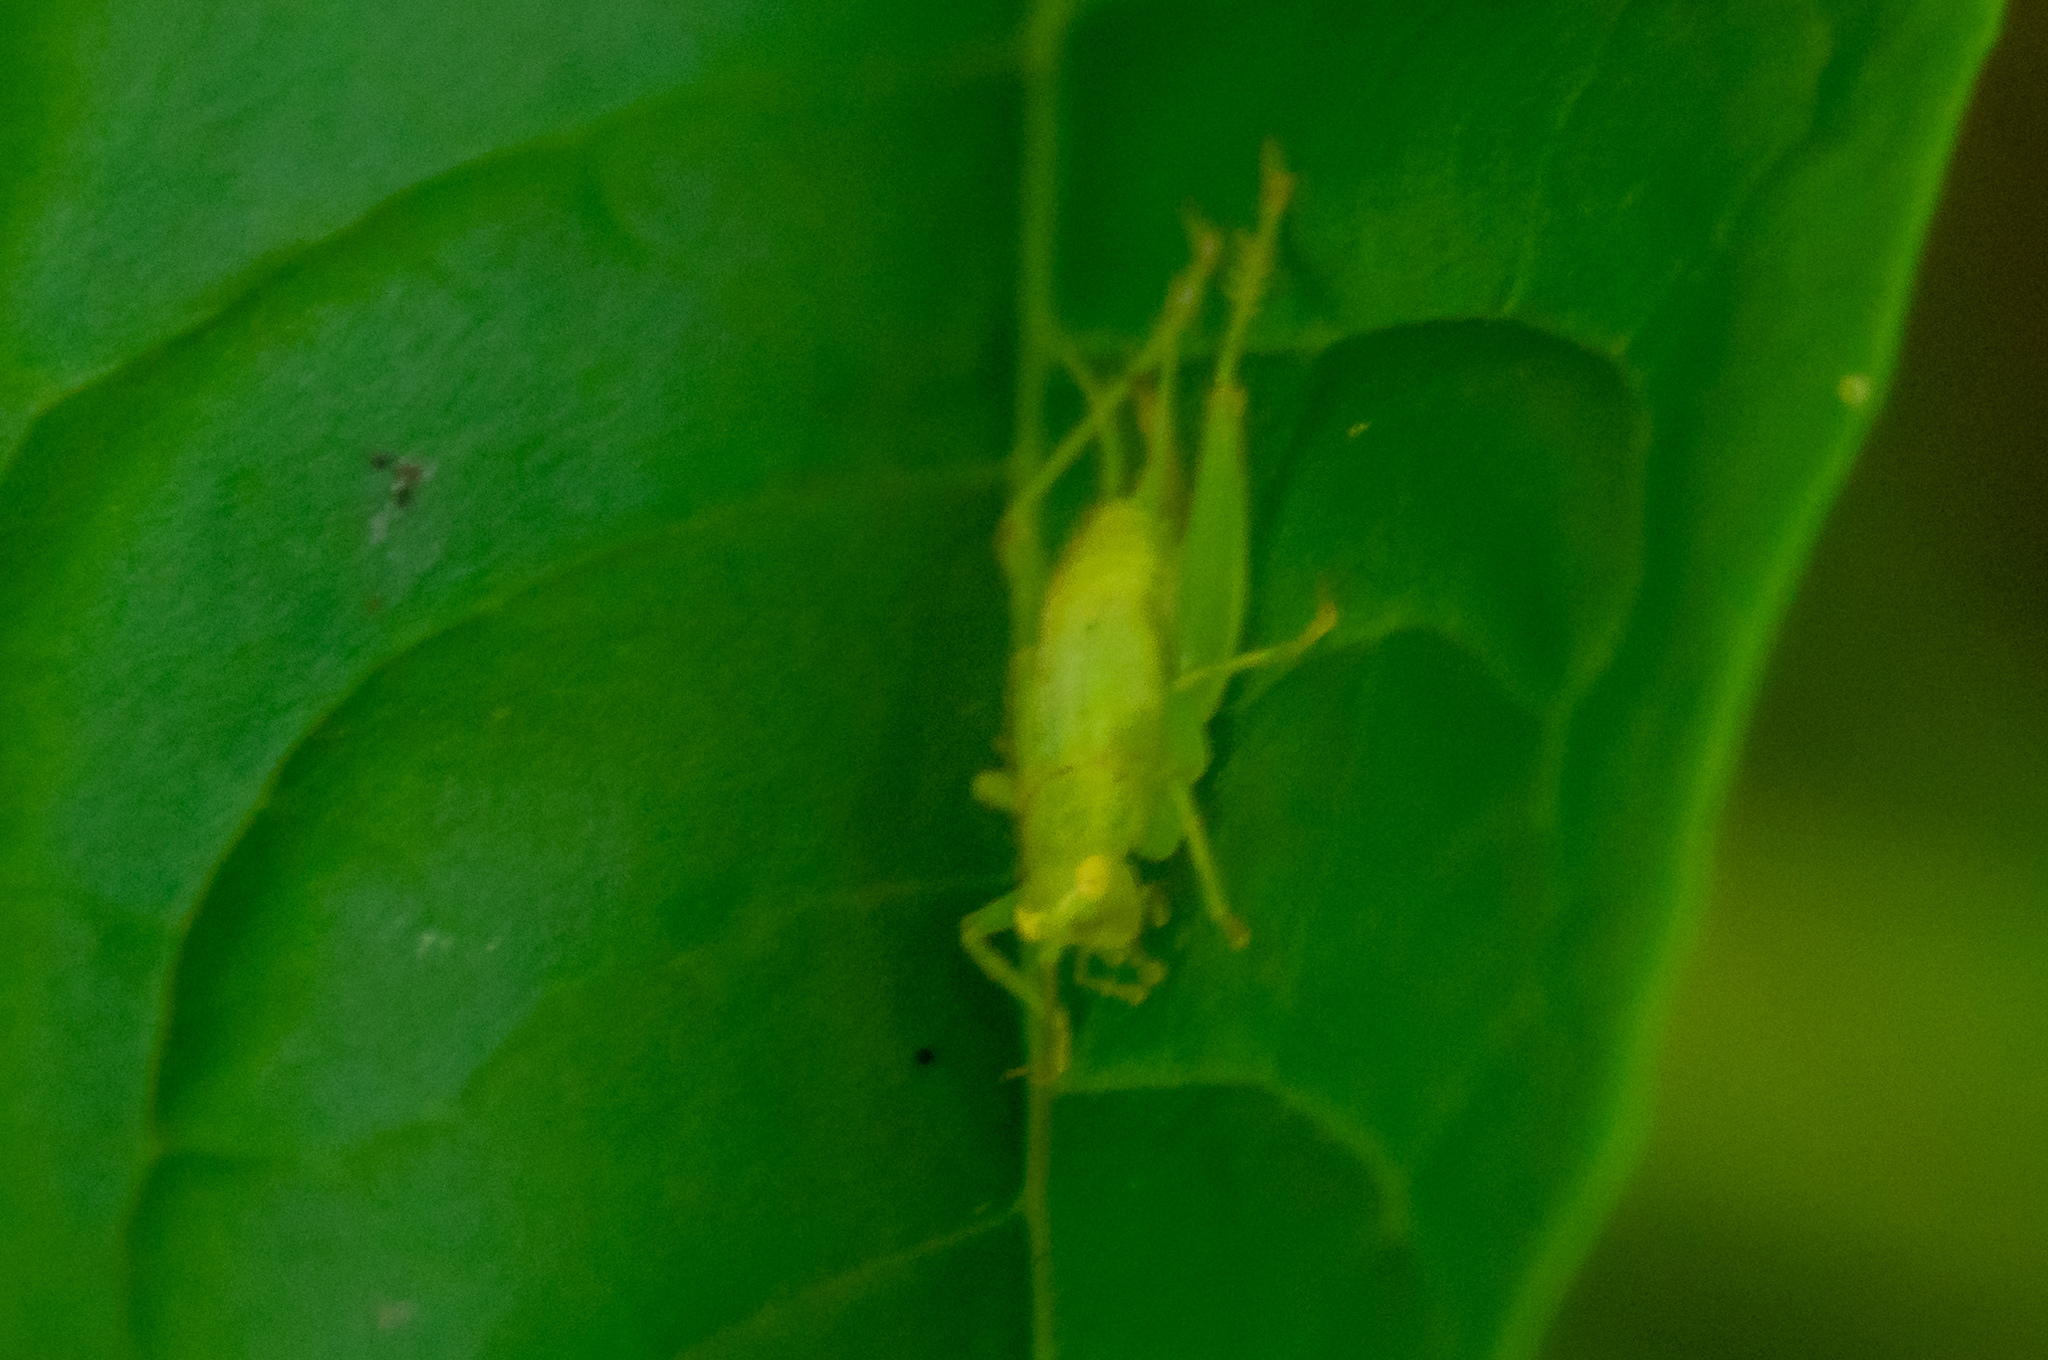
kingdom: Animalia
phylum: Arthropoda
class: Insecta
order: Orthoptera
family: Trigonidiidae
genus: Cyrtoxipha
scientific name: Cyrtoxipha columbiana
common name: Columbian trig
